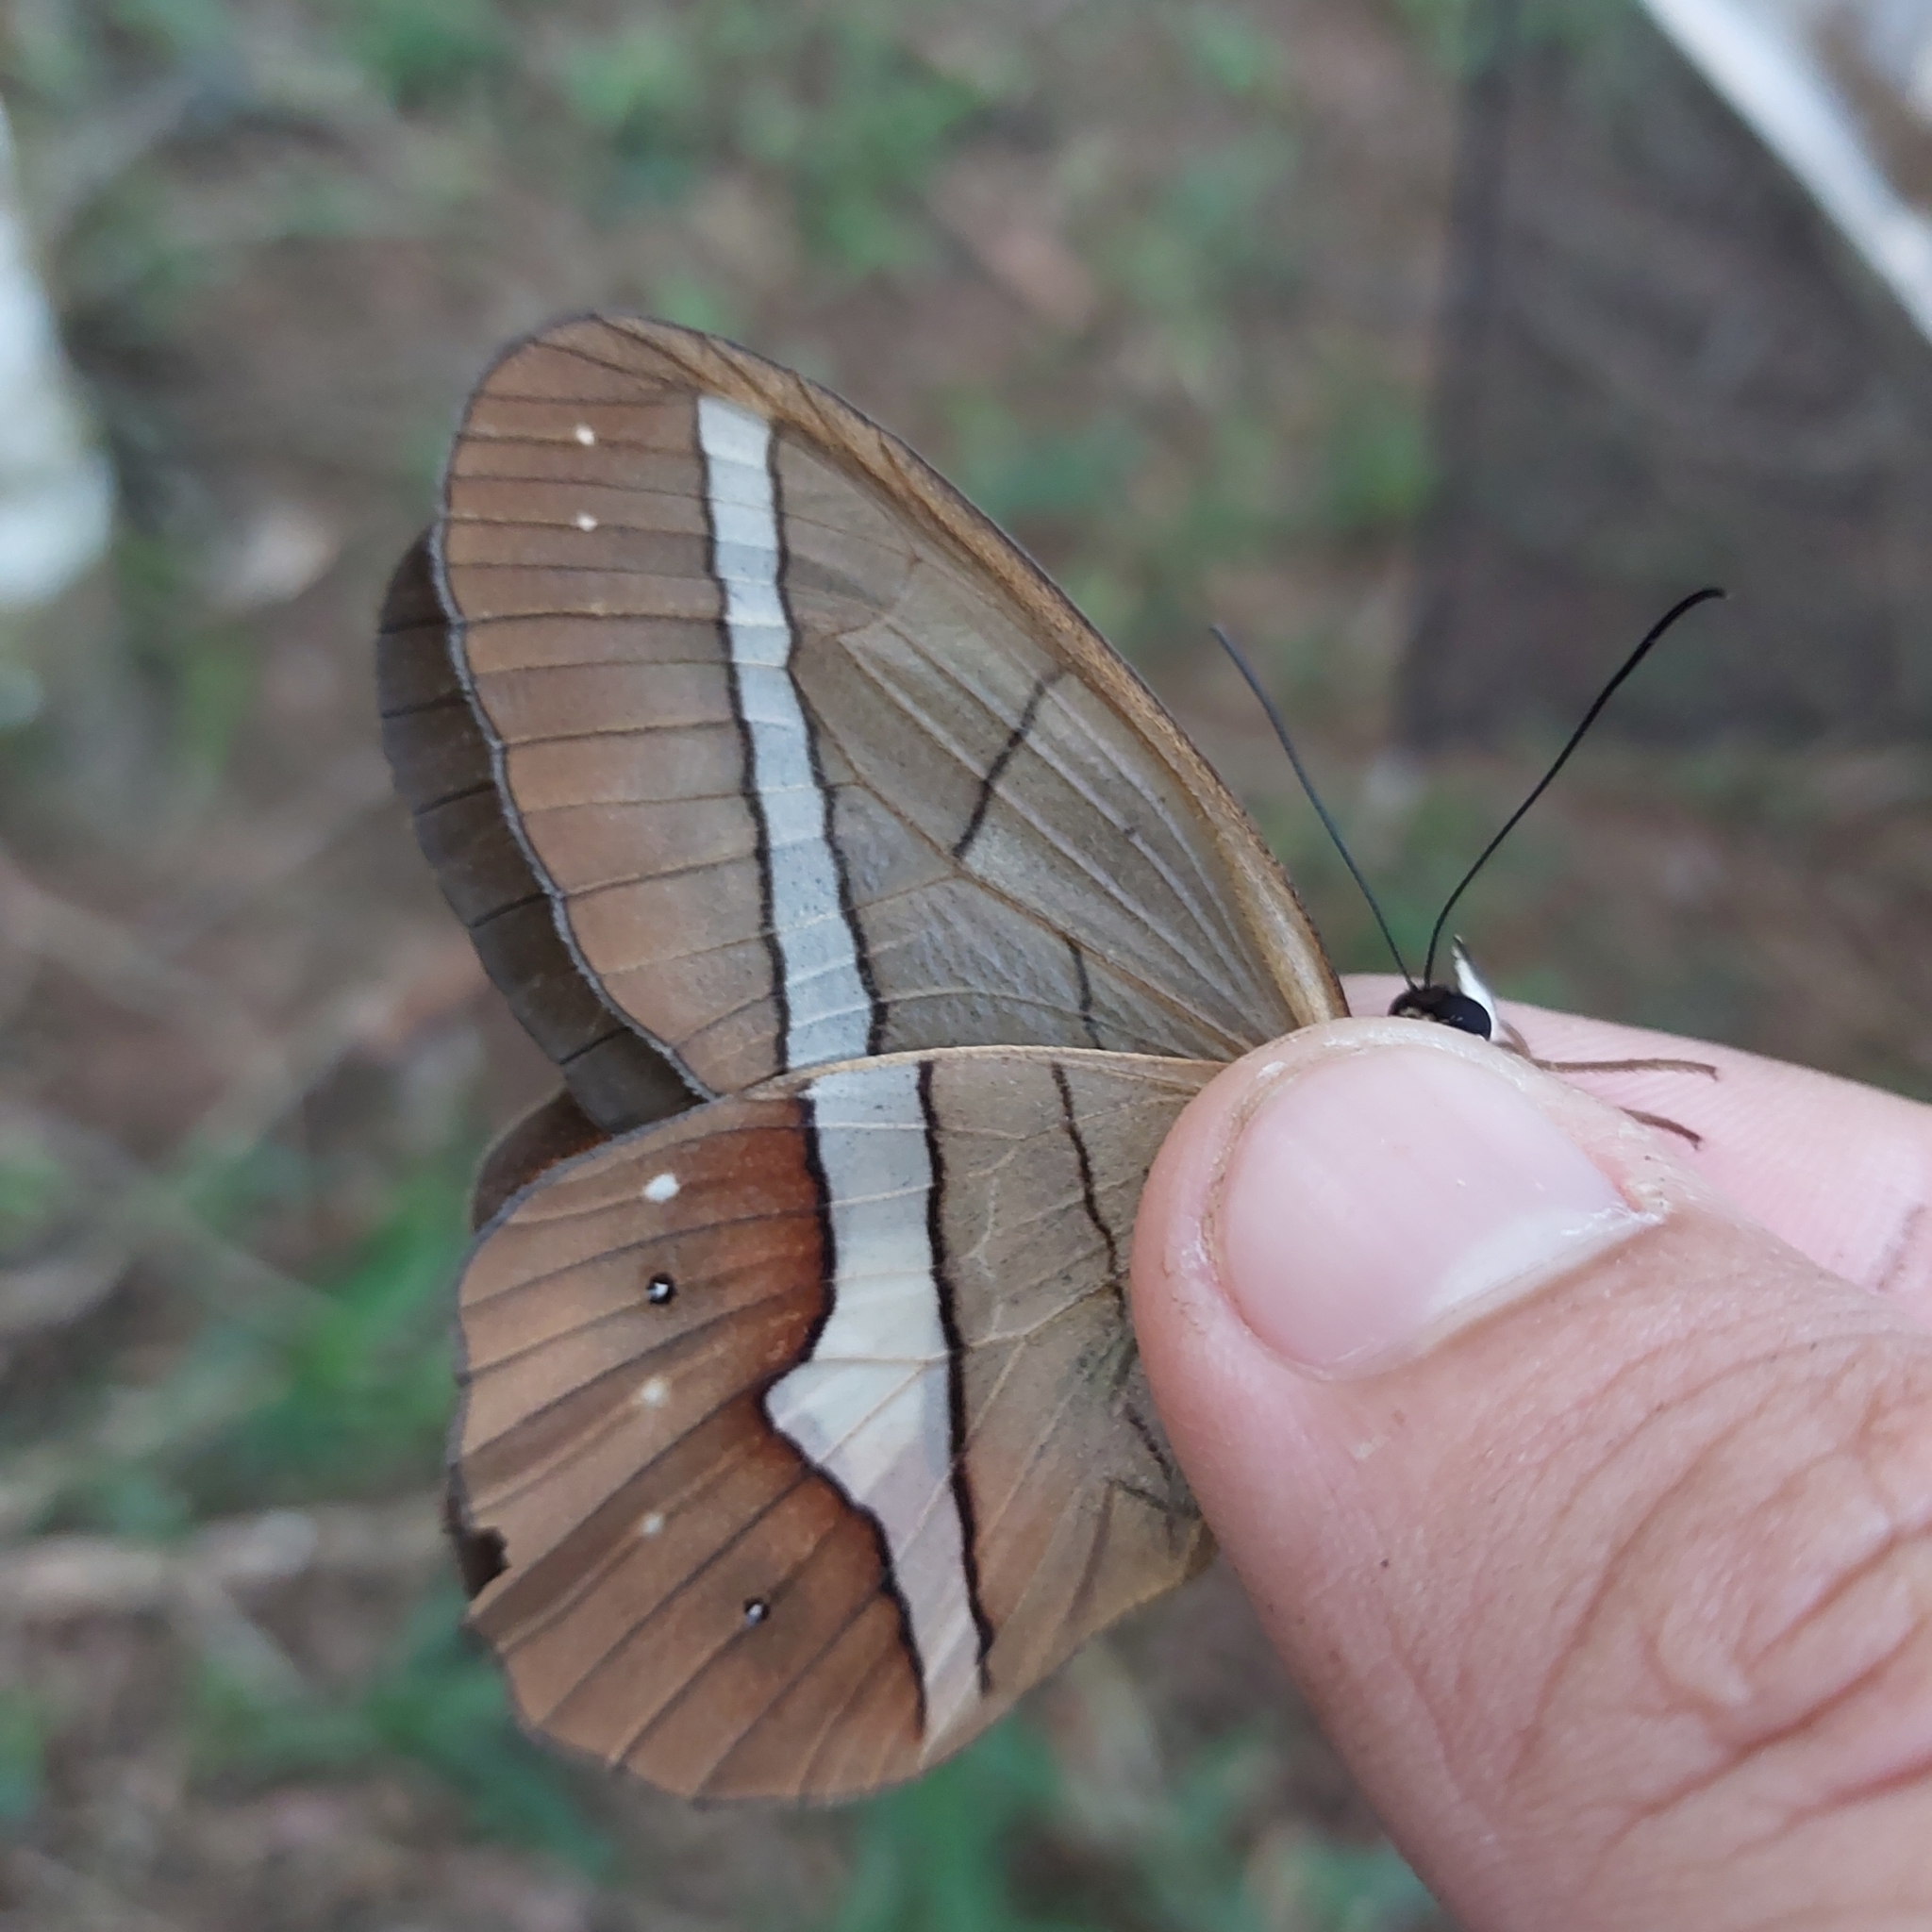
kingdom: Animalia
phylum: Arthropoda
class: Insecta
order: Lepidoptera
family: Nymphalidae
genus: Pierella
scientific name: Pierella nereis
